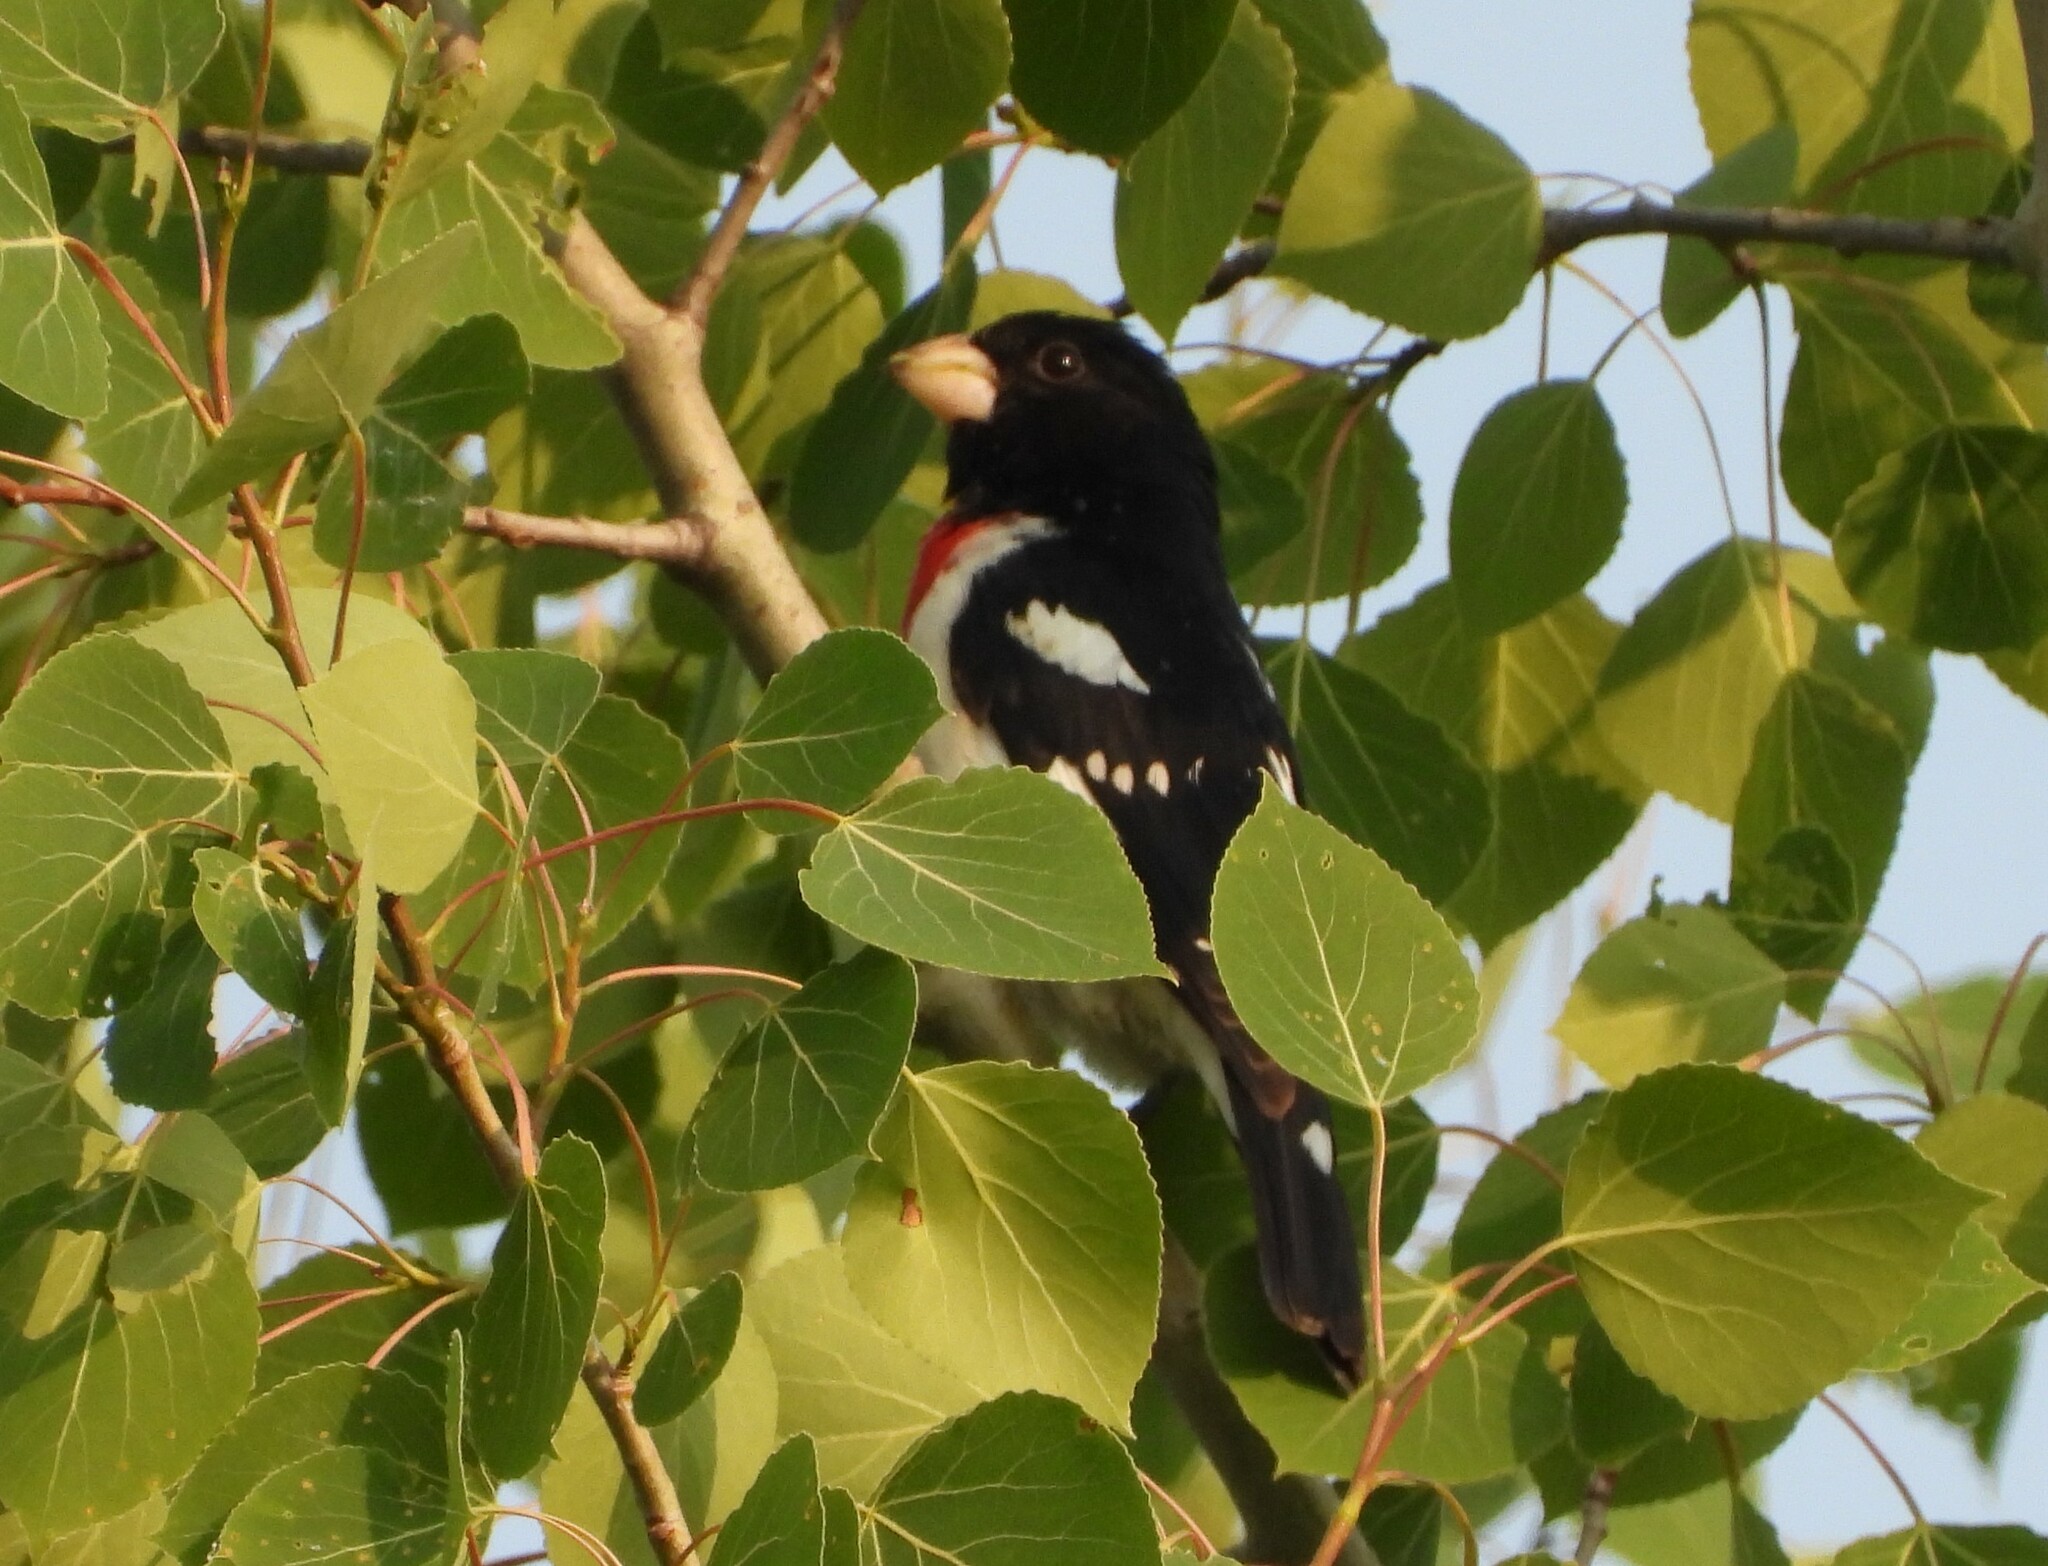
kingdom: Animalia
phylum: Chordata
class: Aves
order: Passeriformes
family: Cardinalidae
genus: Pheucticus
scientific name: Pheucticus ludovicianus
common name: Rose-breasted grosbeak
